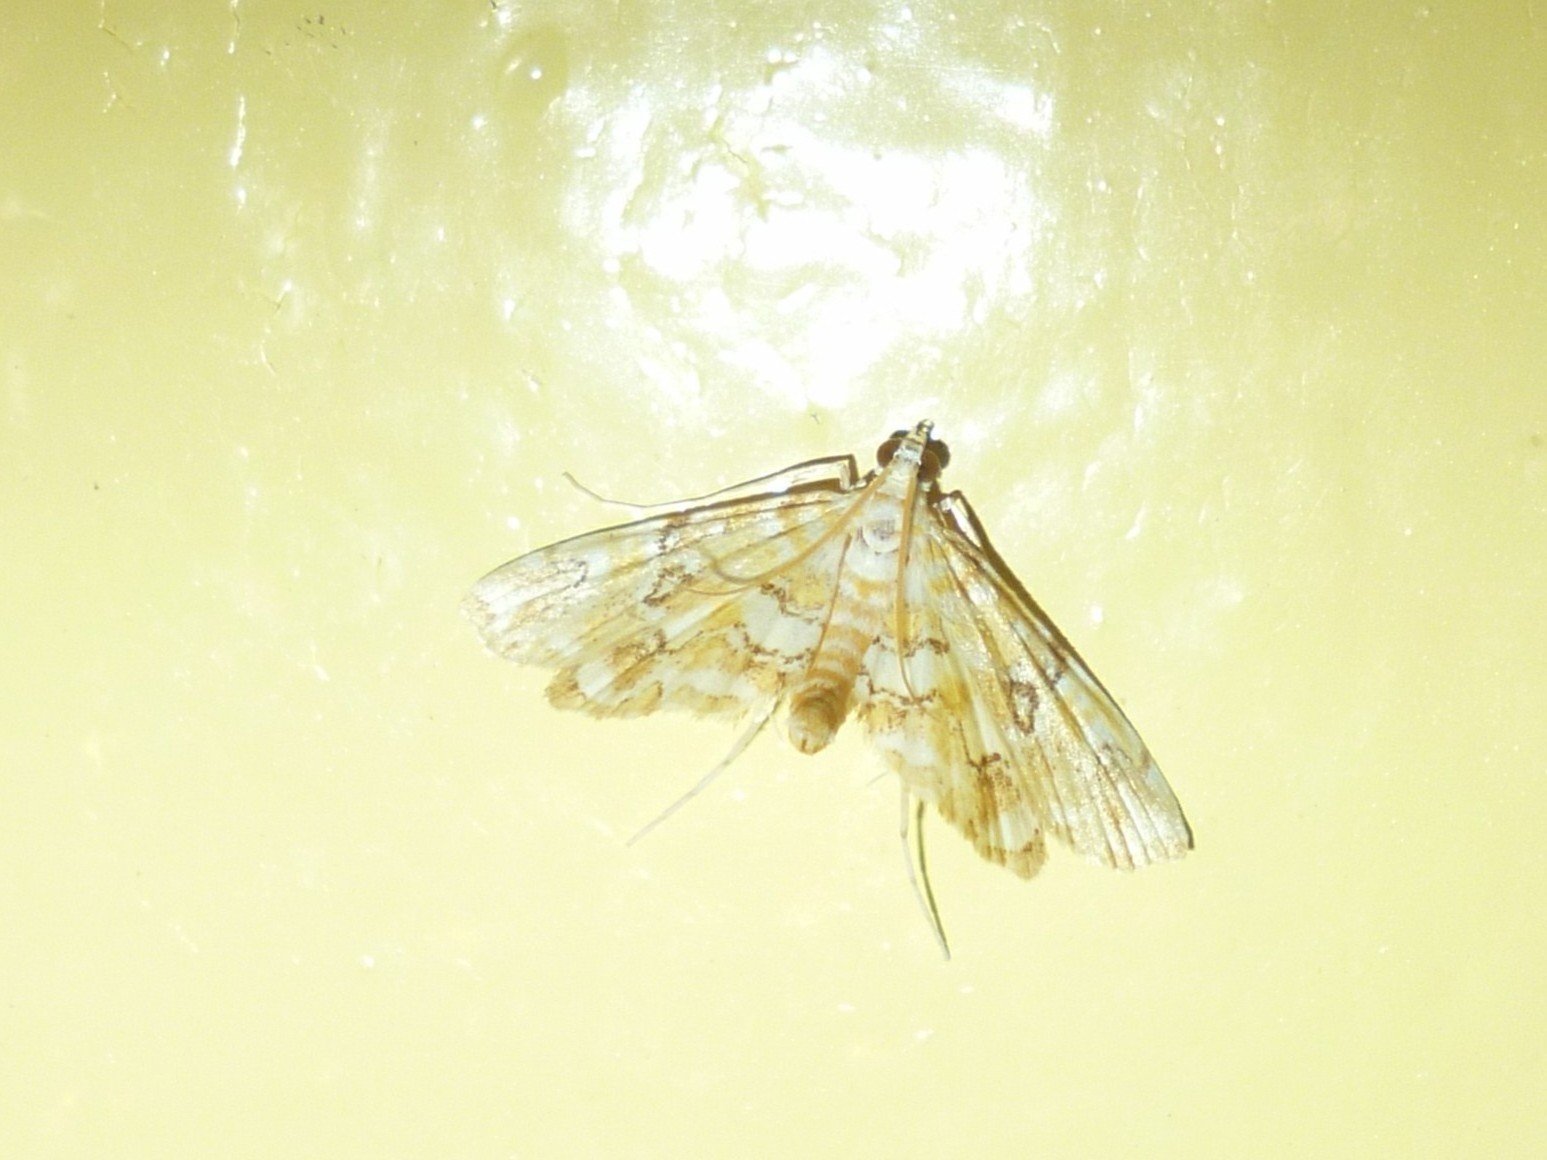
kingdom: Animalia
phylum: Arthropoda
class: Insecta
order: Lepidoptera
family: Crambidae
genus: Elophila
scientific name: Elophila icciusalis
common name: Pondside pyralid moth
